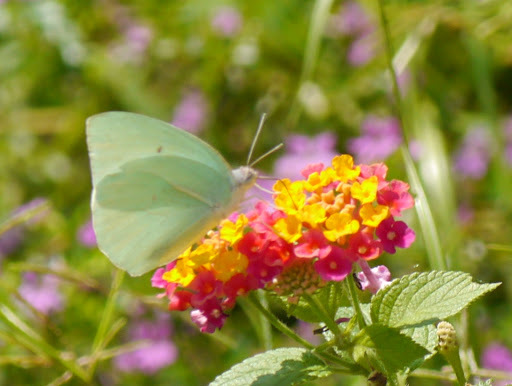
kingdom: Animalia
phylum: Arthropoda
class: Insecta
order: Lepidoptera
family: Pieridae
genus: Catopsilia
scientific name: Catopsilia florella
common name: African migrant
